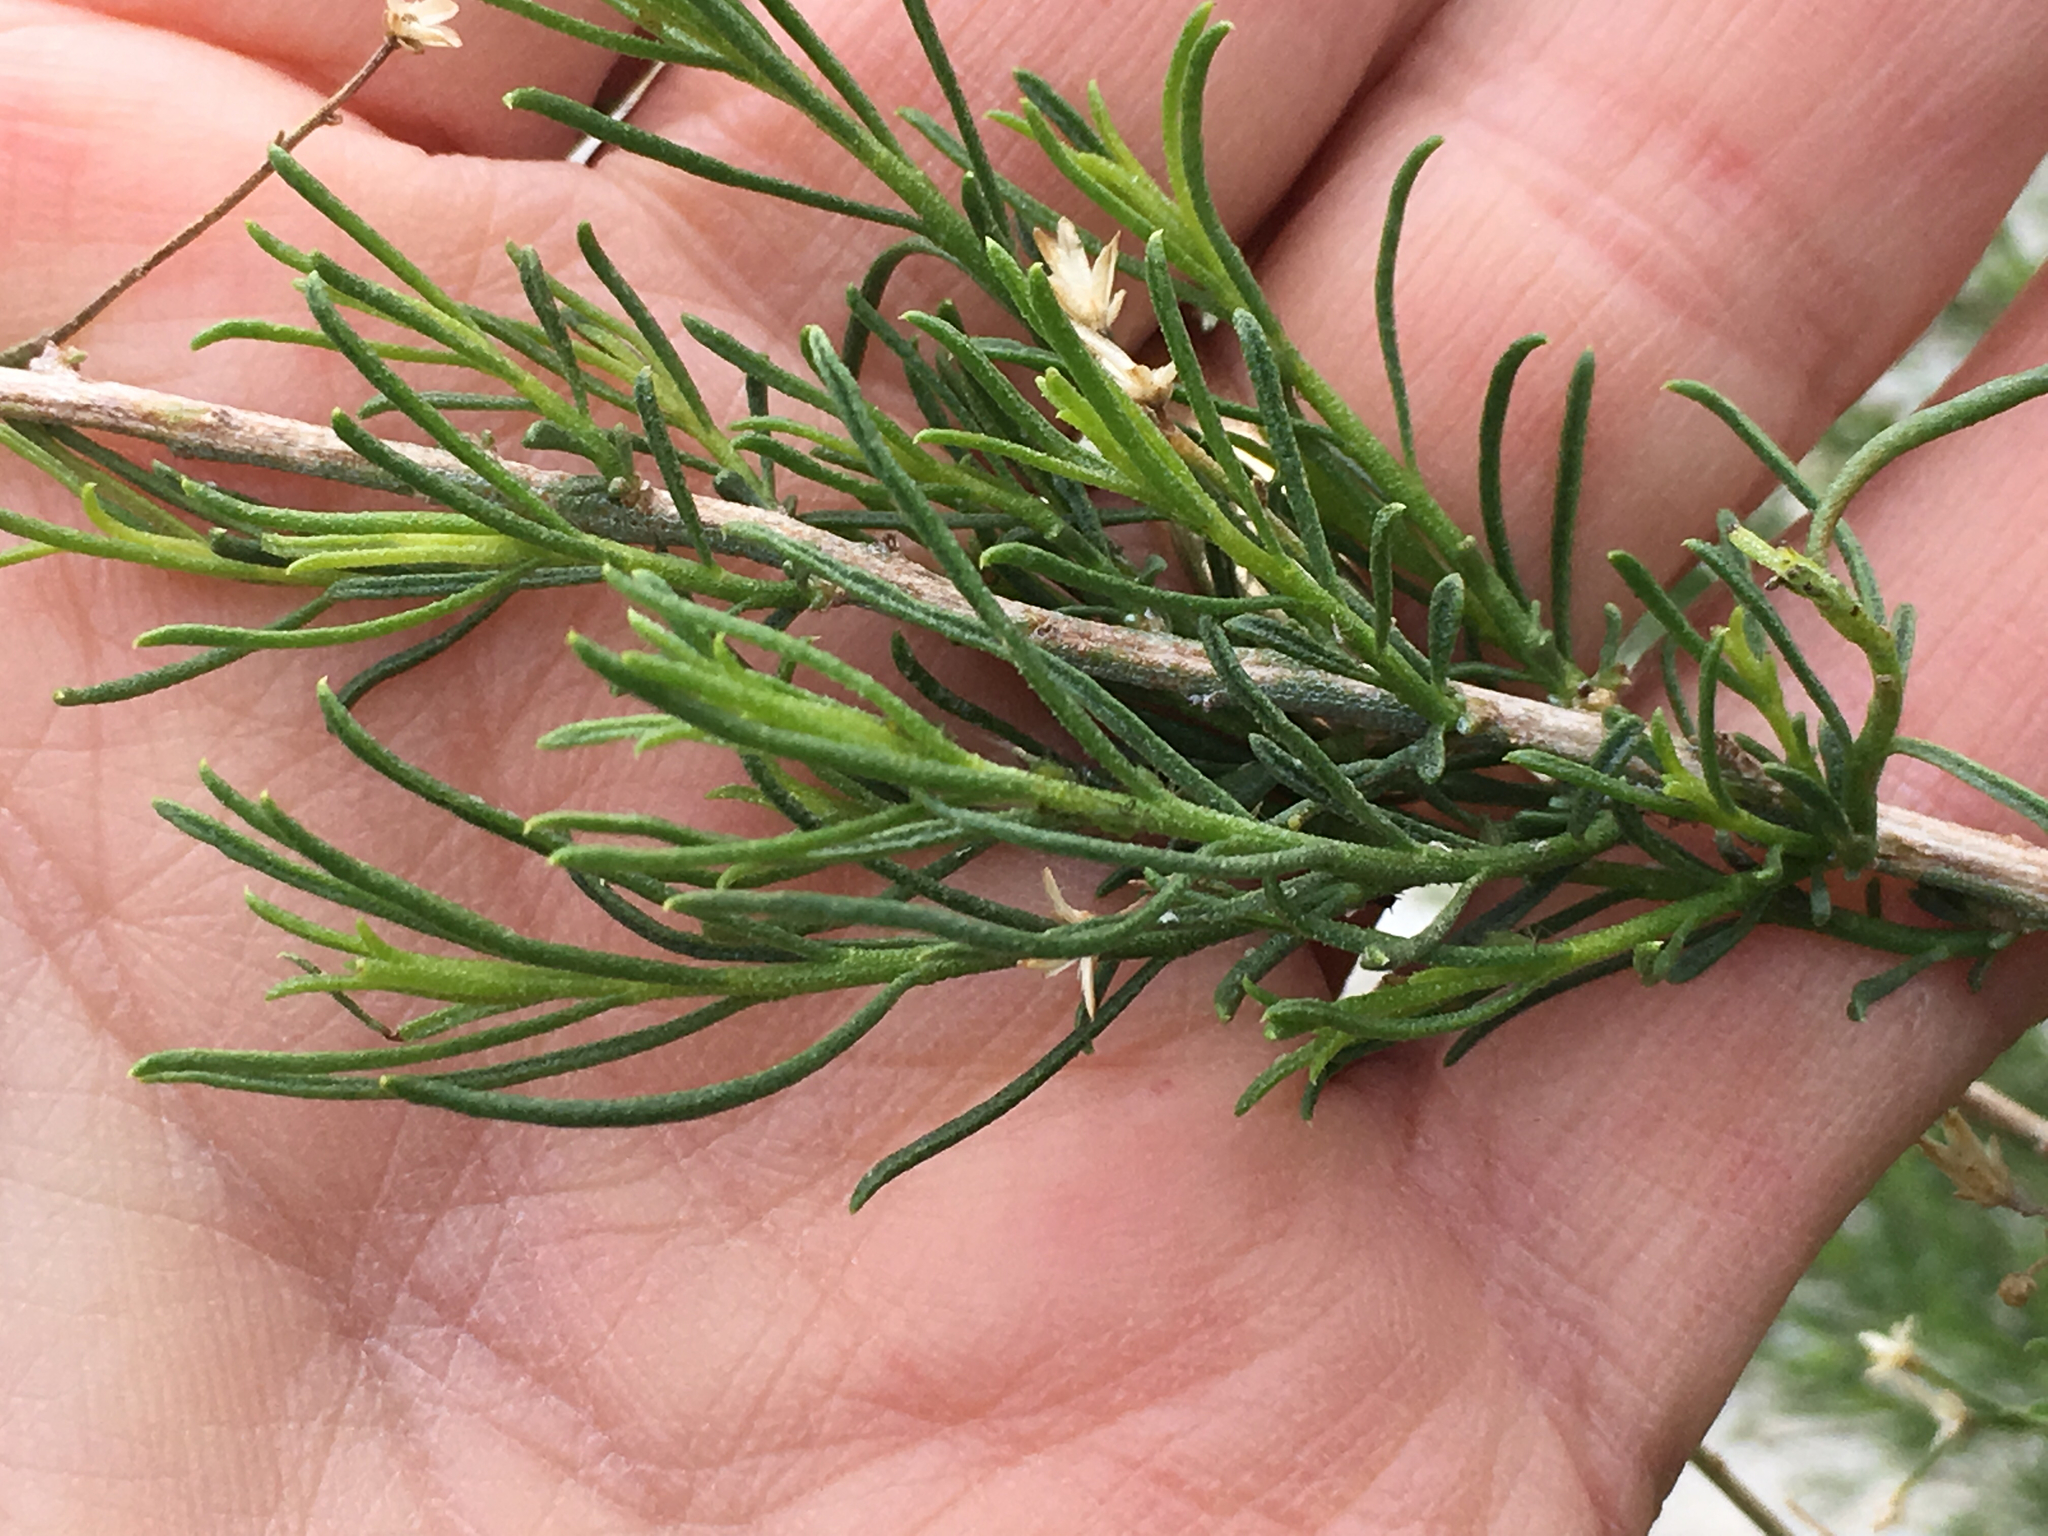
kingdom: Plantae
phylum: Tracheophyta
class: Magnoliopsida
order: Asterales
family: Asteraceae
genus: Ericameria
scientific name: Ericameria paniculata
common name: Punctate rabbitbrush
